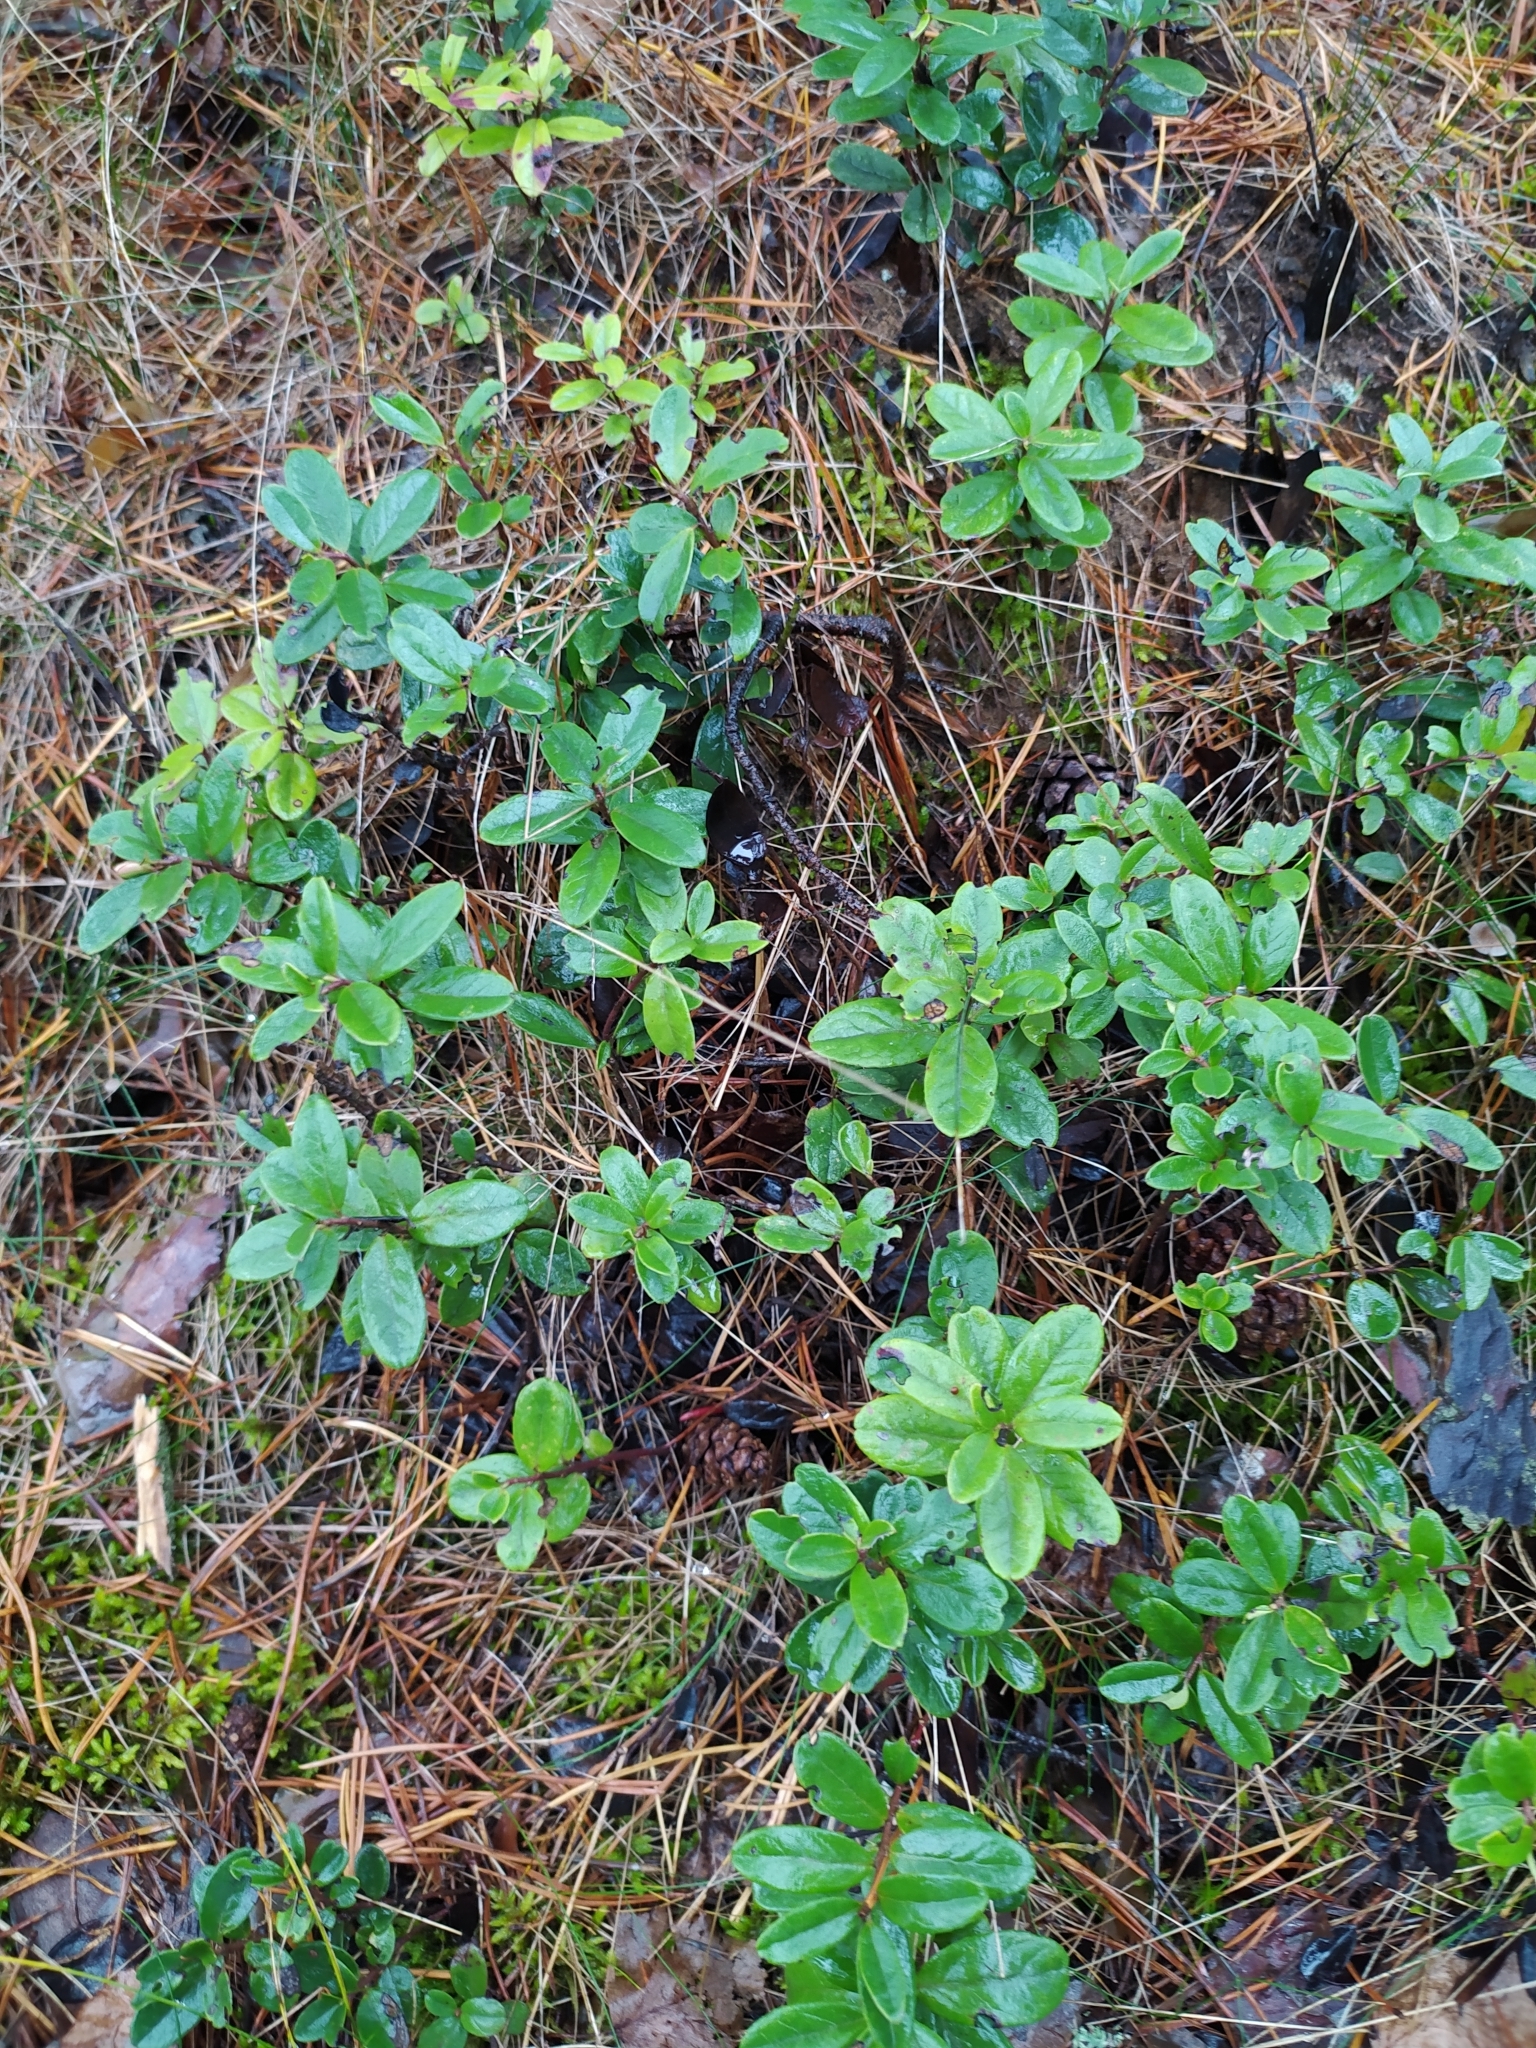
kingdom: Plantae
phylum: Tracheophyta
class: Magnoliopsida
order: Ericales
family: Ericaceae
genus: Vaccinium
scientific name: Vaccinium vitis-idaea
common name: Cowberry
